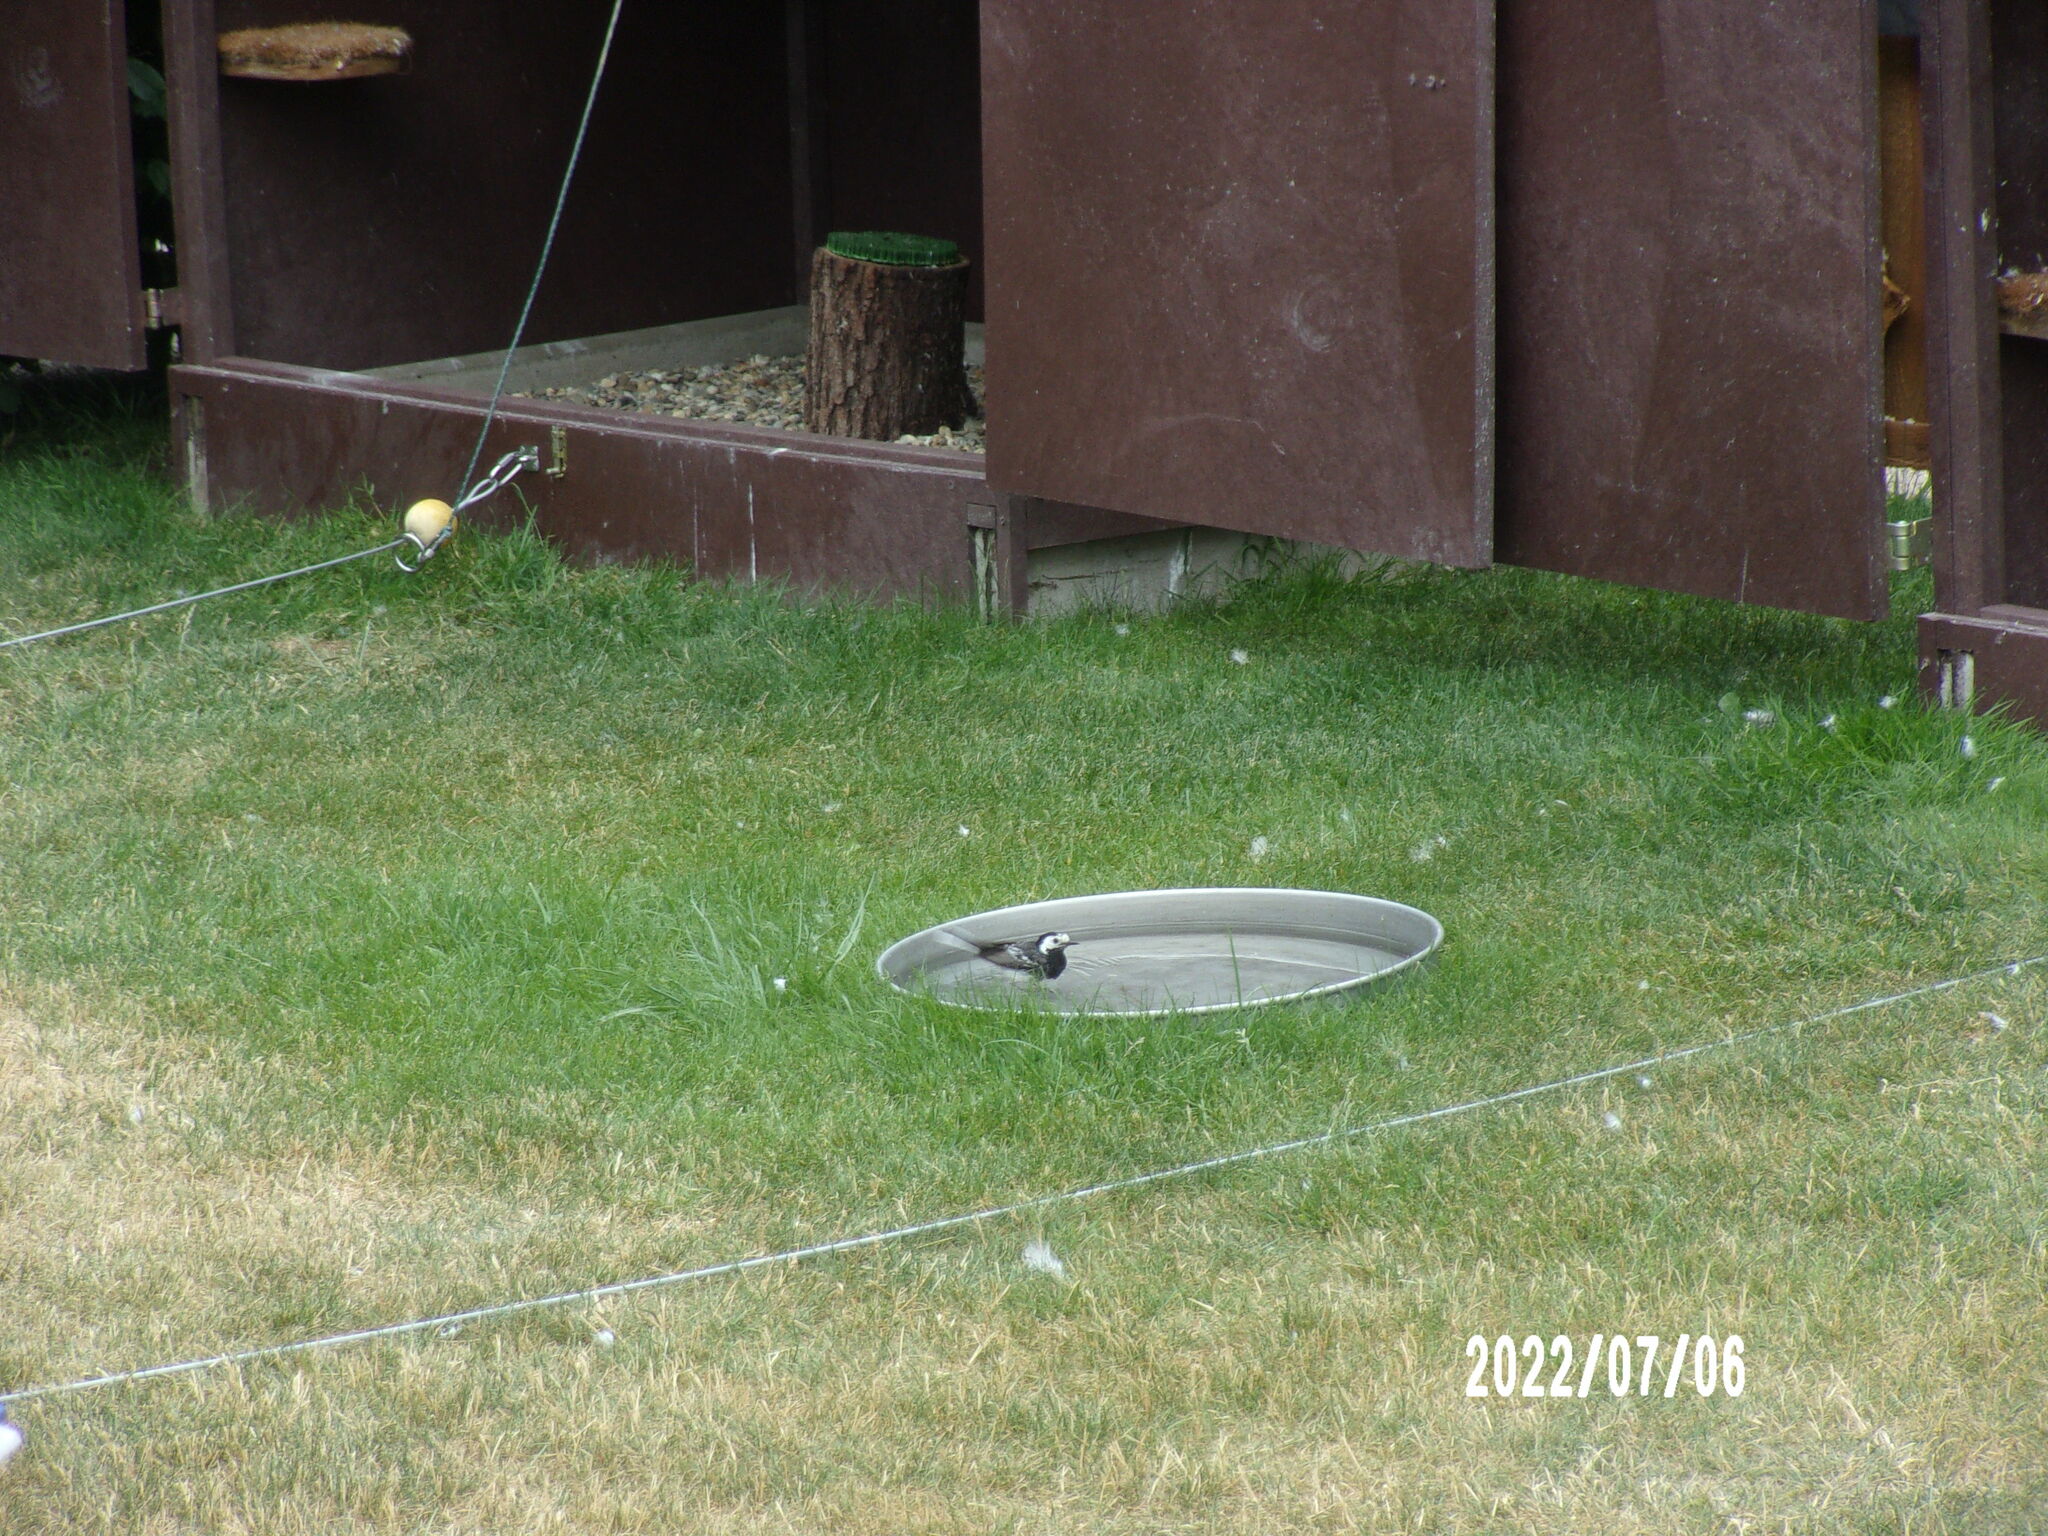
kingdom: Animalia
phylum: Chordata
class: Aves
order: Passeriformes
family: Motacillidae
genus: Motacilla
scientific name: Motacilla alba
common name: White wagtail
